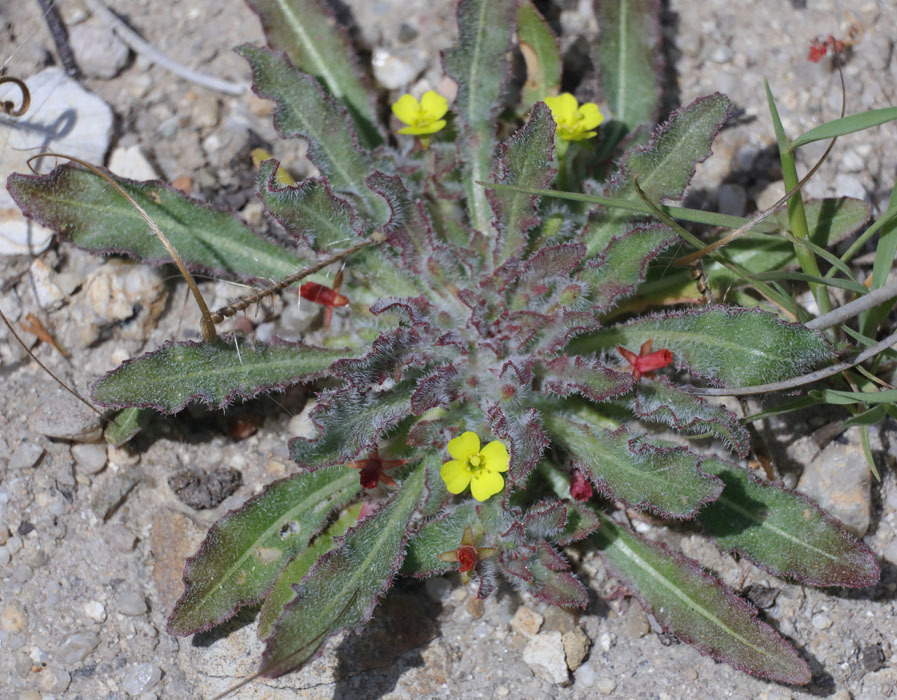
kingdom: Plantae
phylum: Tracheophyta
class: Magnoliopsida
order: Myrtales
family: Onagraceae
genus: Camissoniopsis
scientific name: Camissoniopsis micrantha
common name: Miniature suncup
